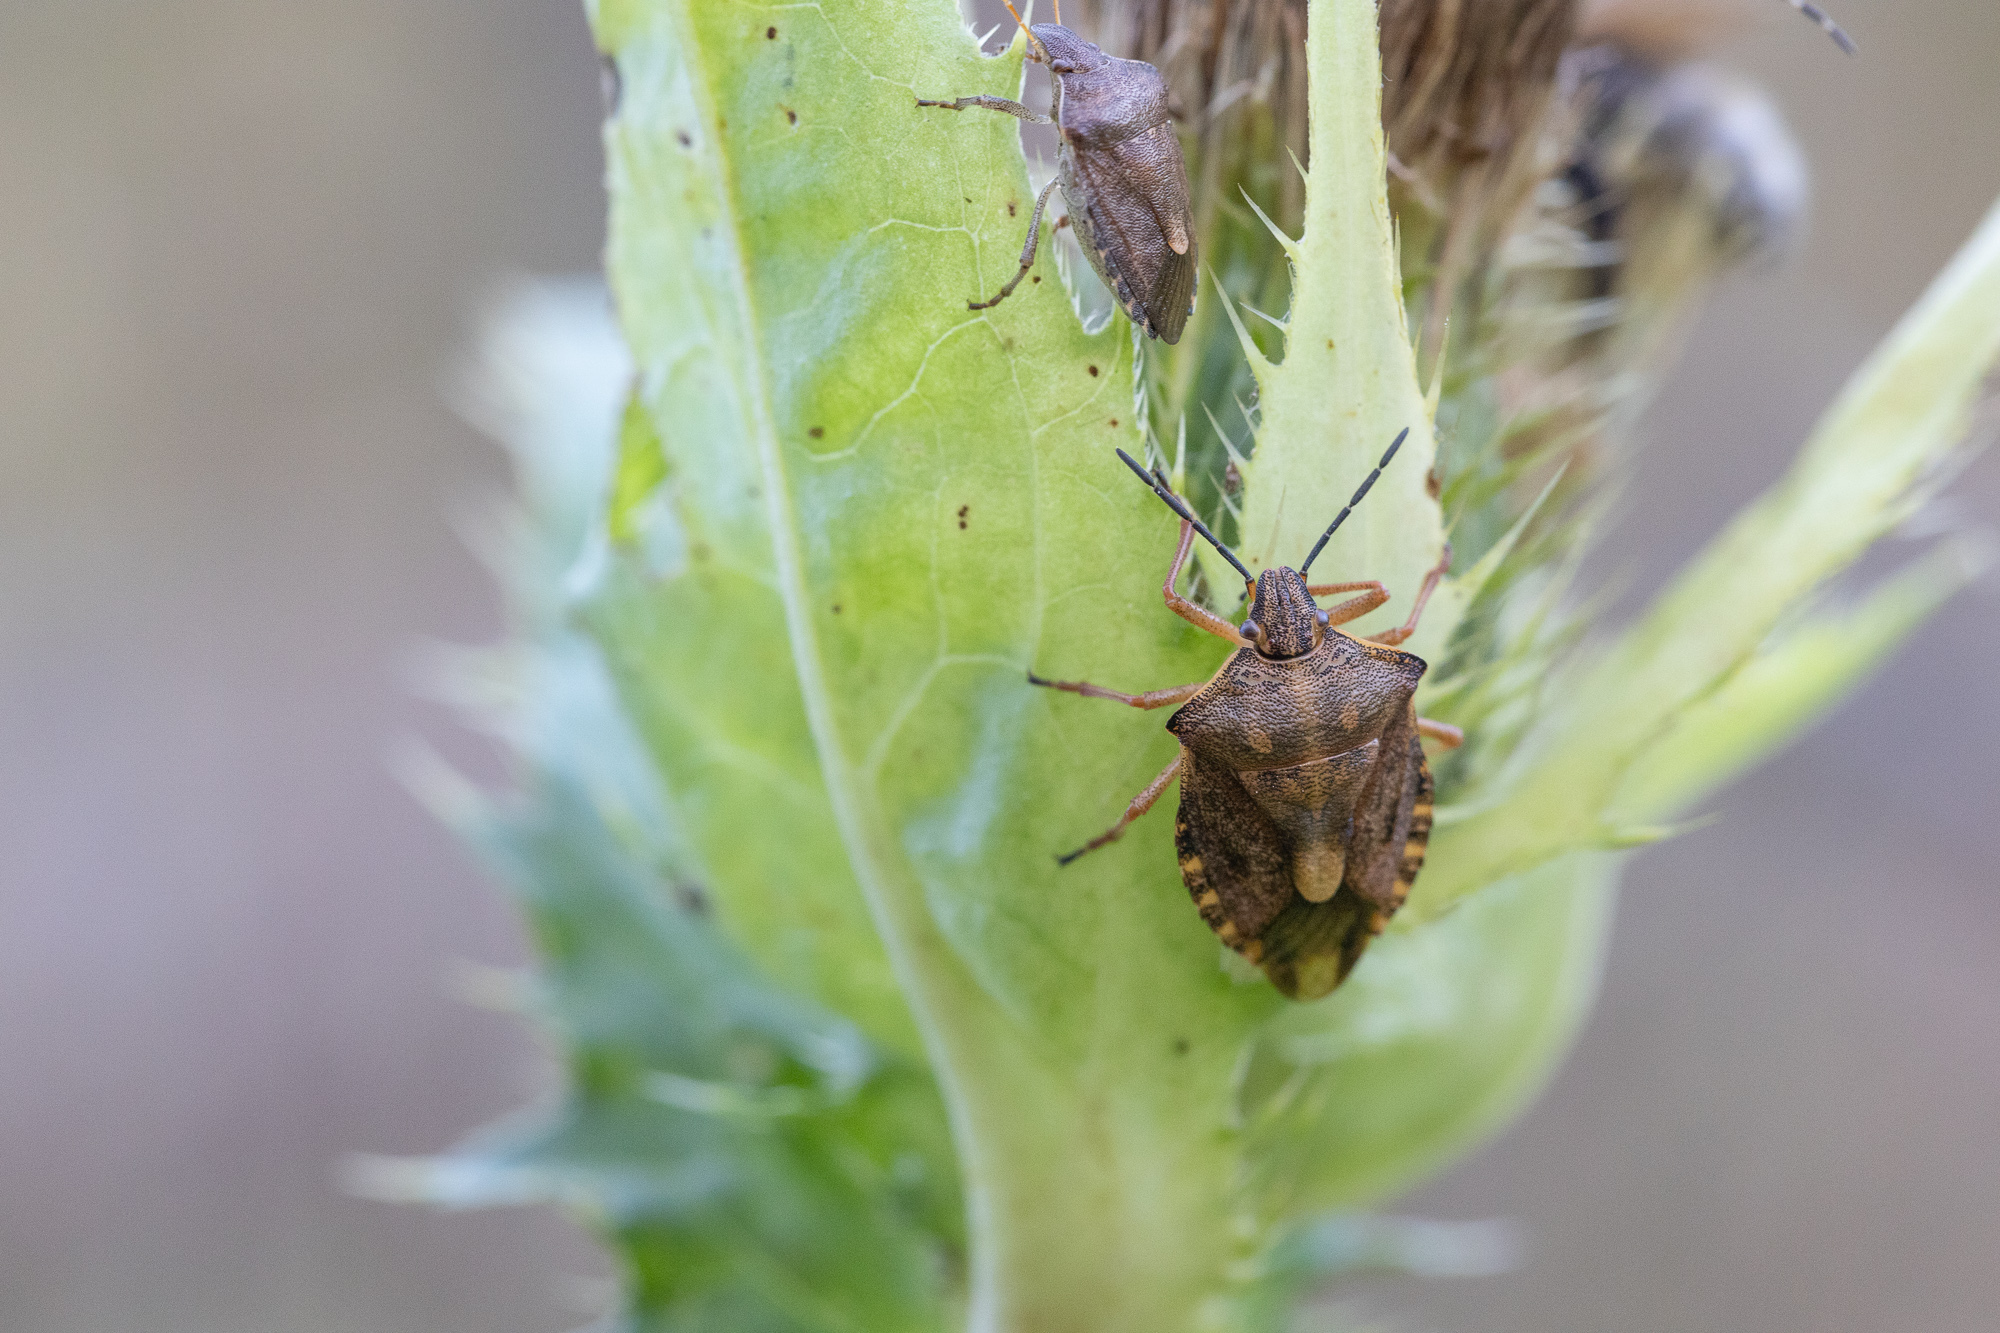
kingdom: Animalia
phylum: Arthropoda
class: Insecta
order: Hemiptera
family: Pentatomidae
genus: Carpocoris
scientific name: Carpocoris purpureipennis
